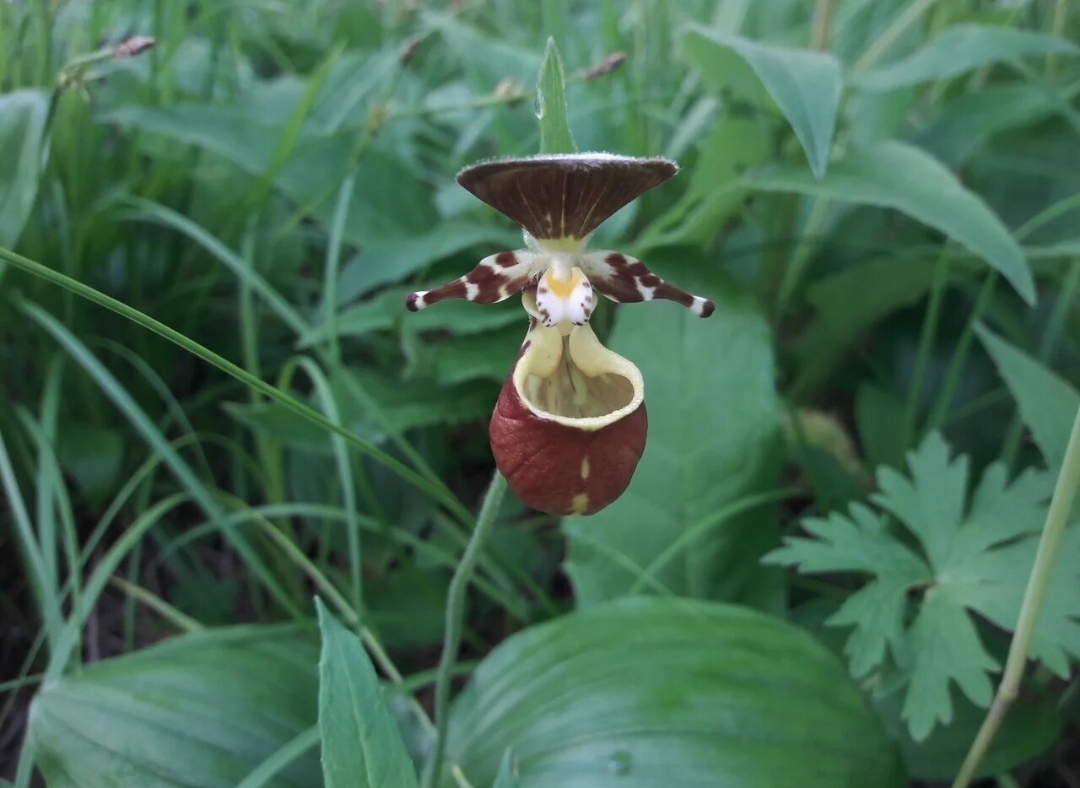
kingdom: Plantae
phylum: Tracheophyta
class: Liliopsida
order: Asparagales
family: Orchidaceae
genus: Cypripedium
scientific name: Cypripedium yatabeanum
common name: Spotted lady's slipper
